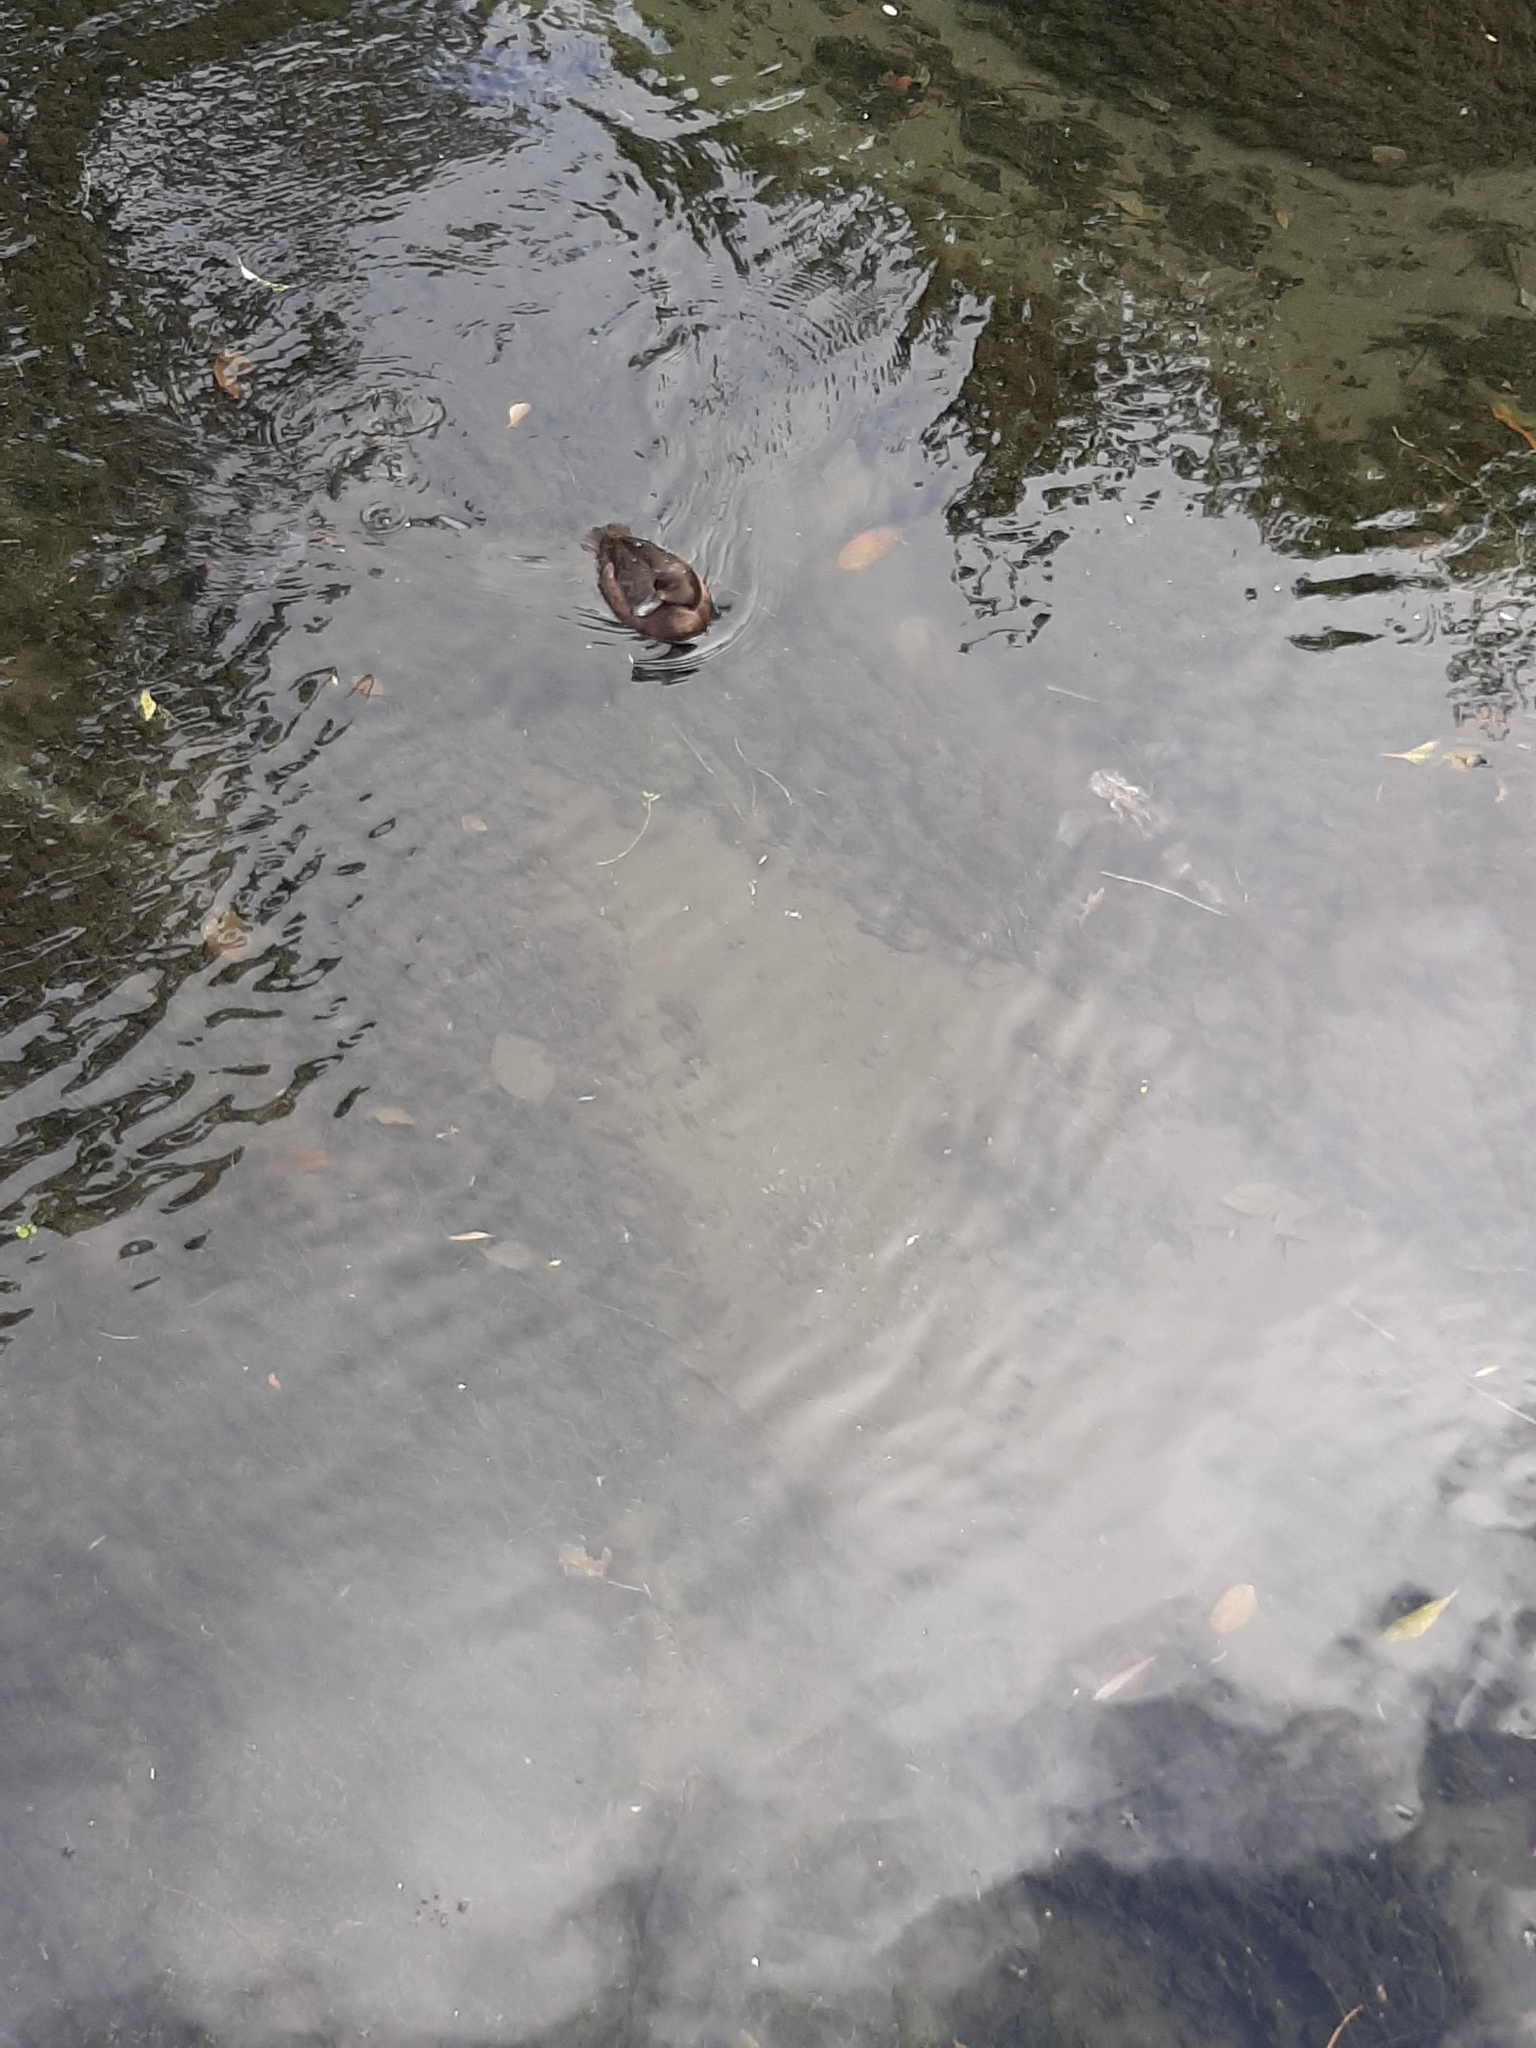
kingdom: Animalia
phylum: Chordata
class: Aves
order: Anseriformes
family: Anatidae
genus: Aythya
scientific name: Aythya novaeseelandiae
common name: New zealand scaup
